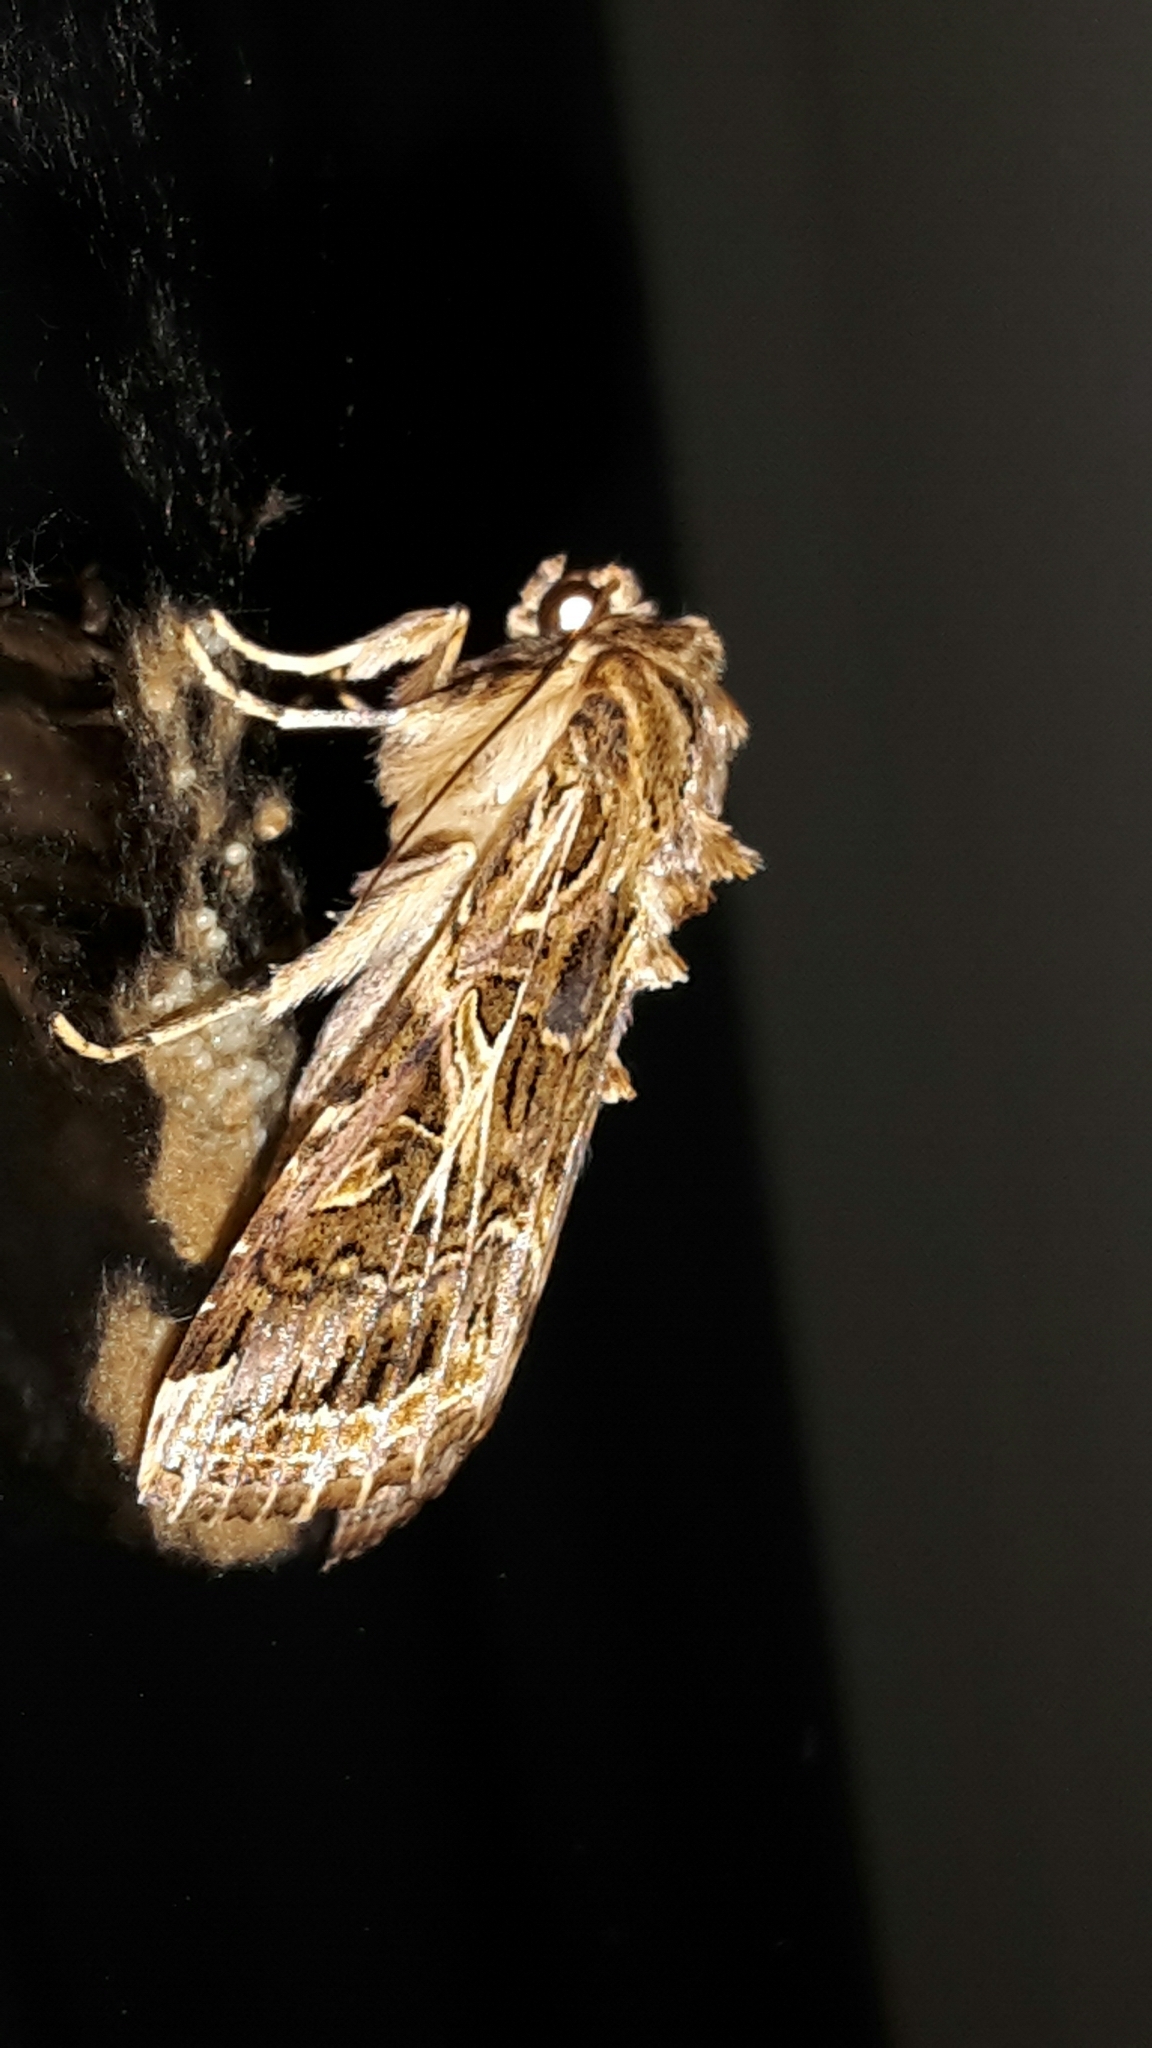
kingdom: Animalia
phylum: Arthropoda
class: Insecta
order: Lepidoptera
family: Noctuidae
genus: Spodoptera
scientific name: Spodoptera litura
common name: Asian cotton leafworm
